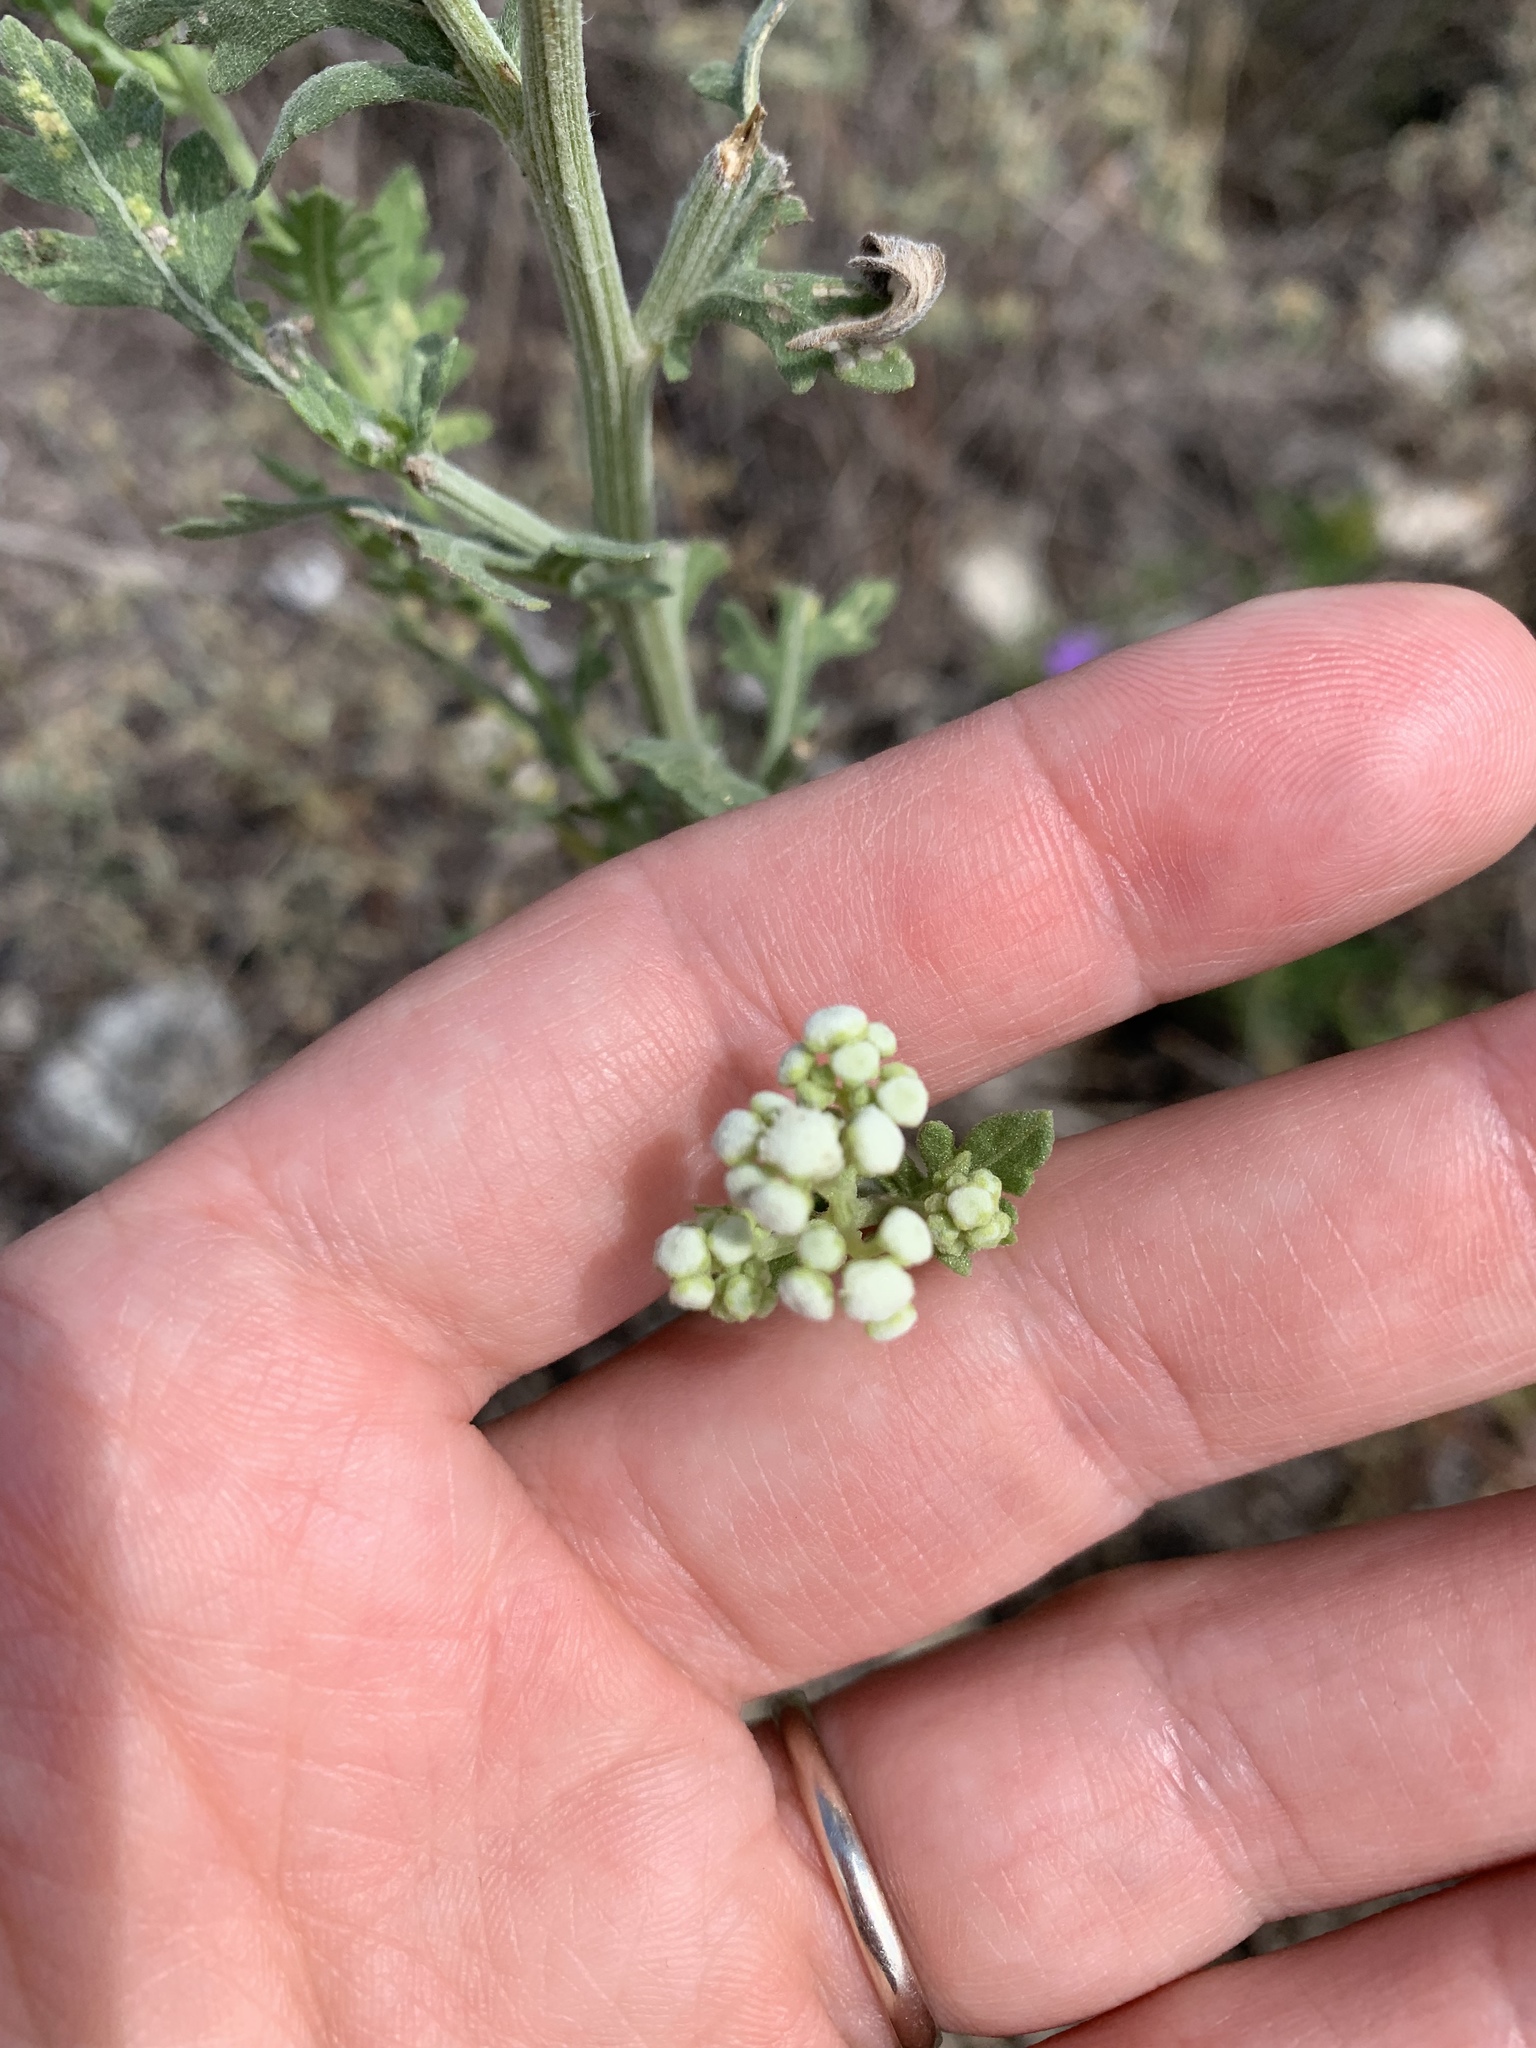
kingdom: Plantae
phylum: Tracheophyta
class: Magnoliopsida
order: Asterales
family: Asteraceae
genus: Parthenium
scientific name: Parthenium hysterophorus
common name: Santa maria feverfew
